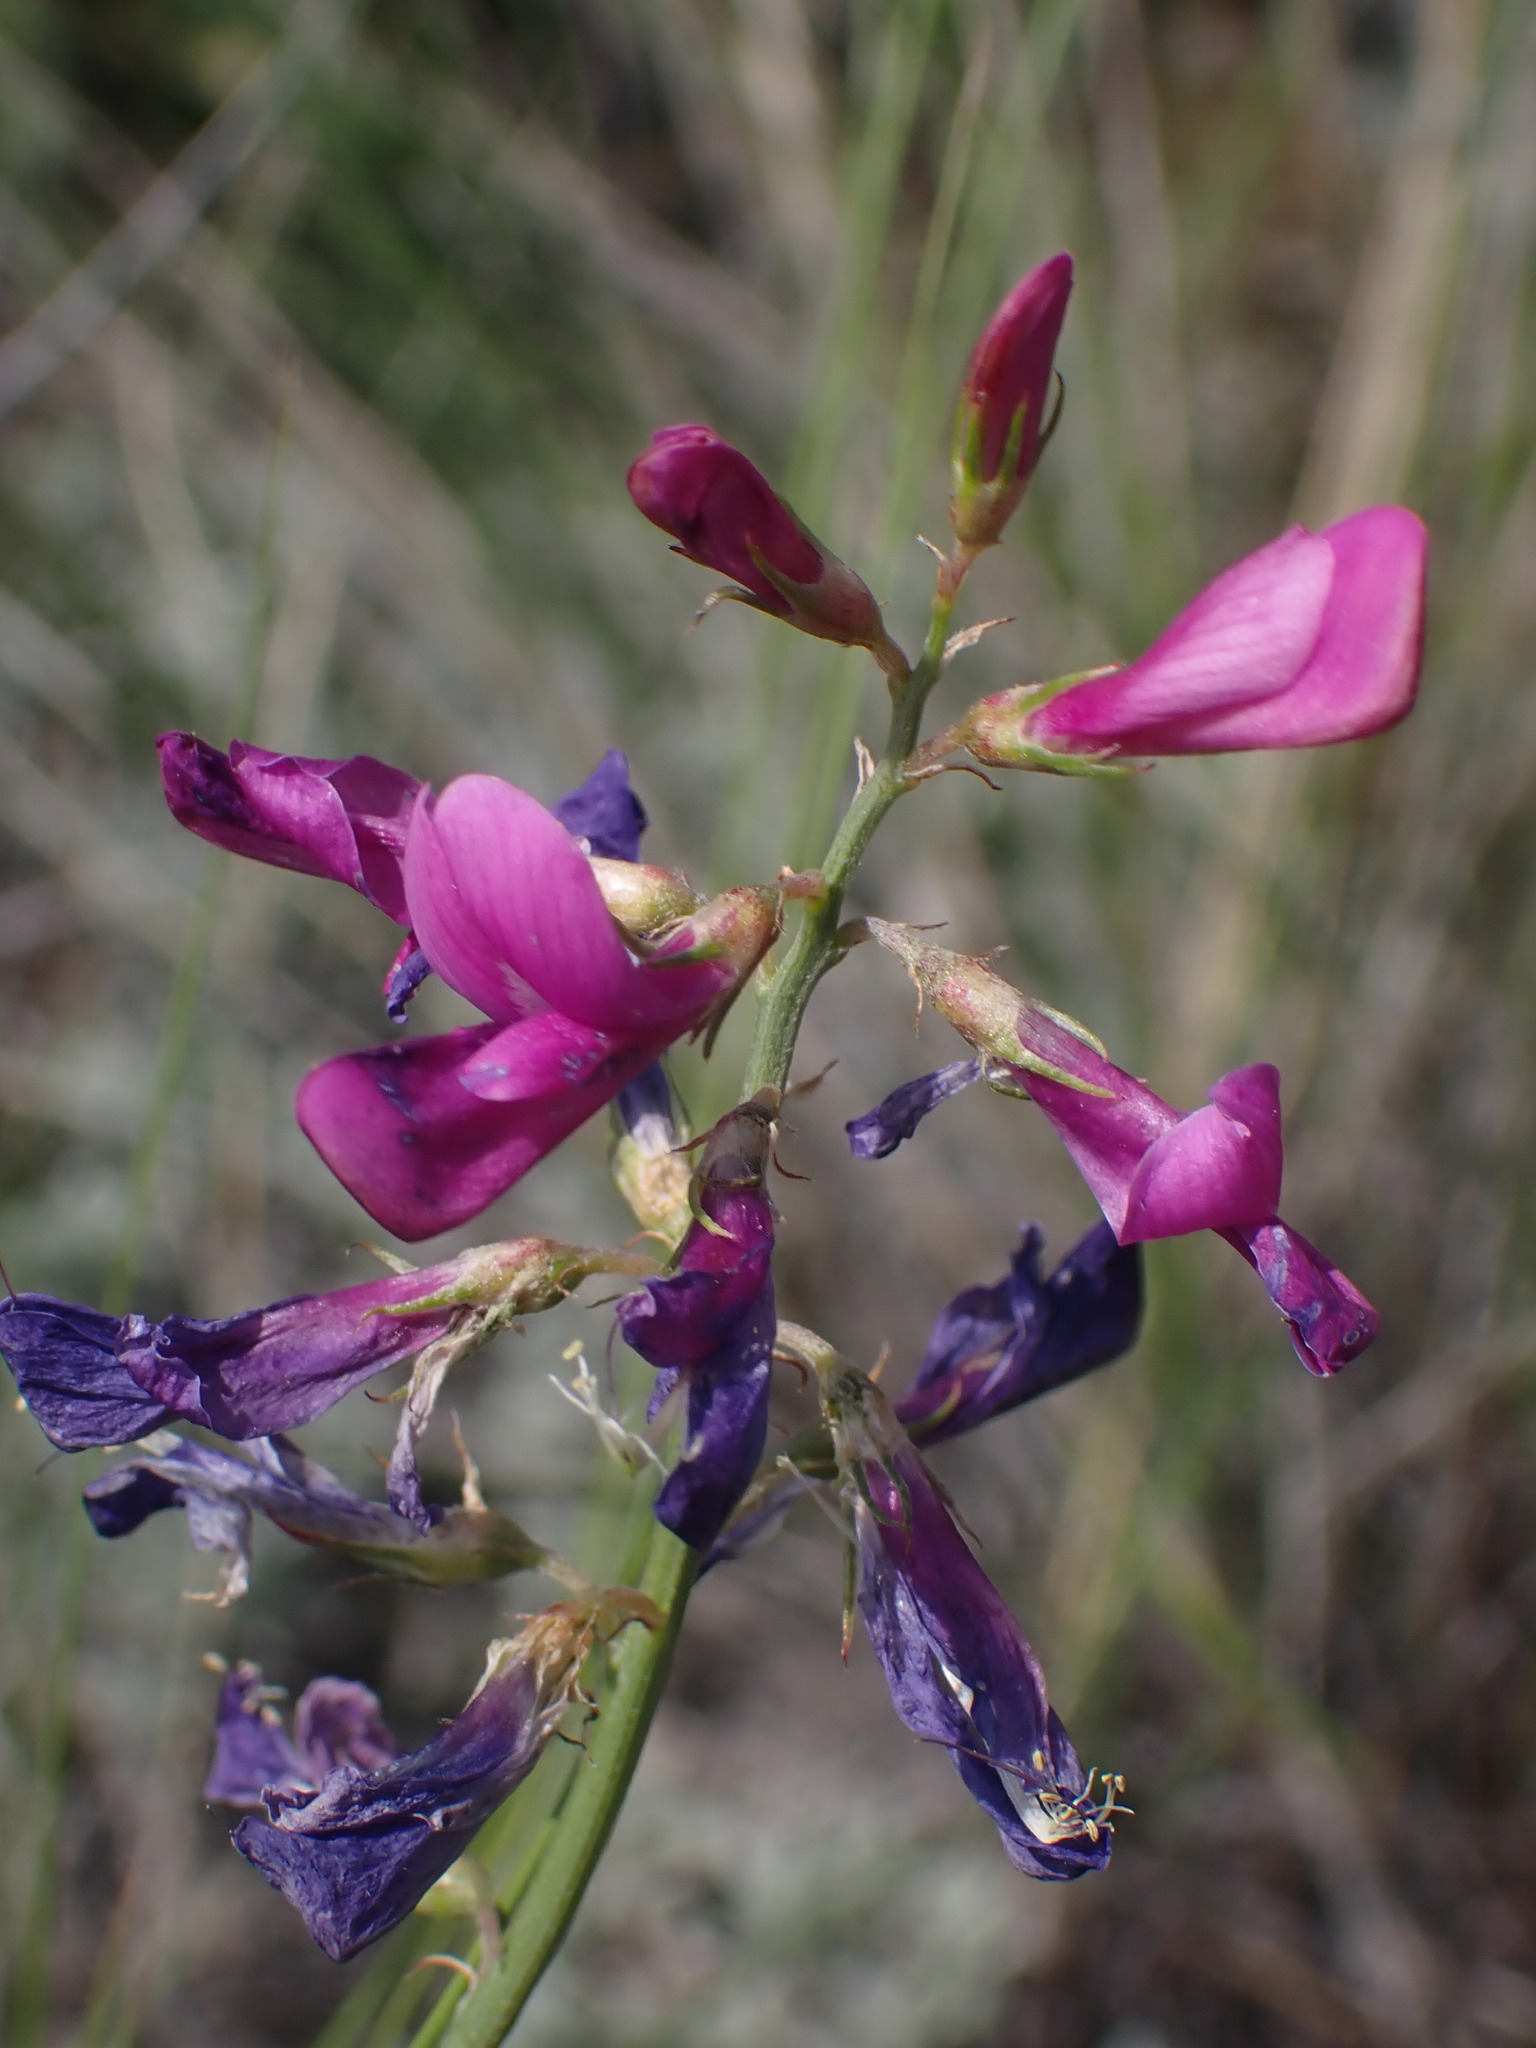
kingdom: Plantae
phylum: Tracheophyta
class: Magnoliopsida
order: Fabales
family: Fabaceae
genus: Hedysarum
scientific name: Hedysarum boreale
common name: Northern sweet-vetch
